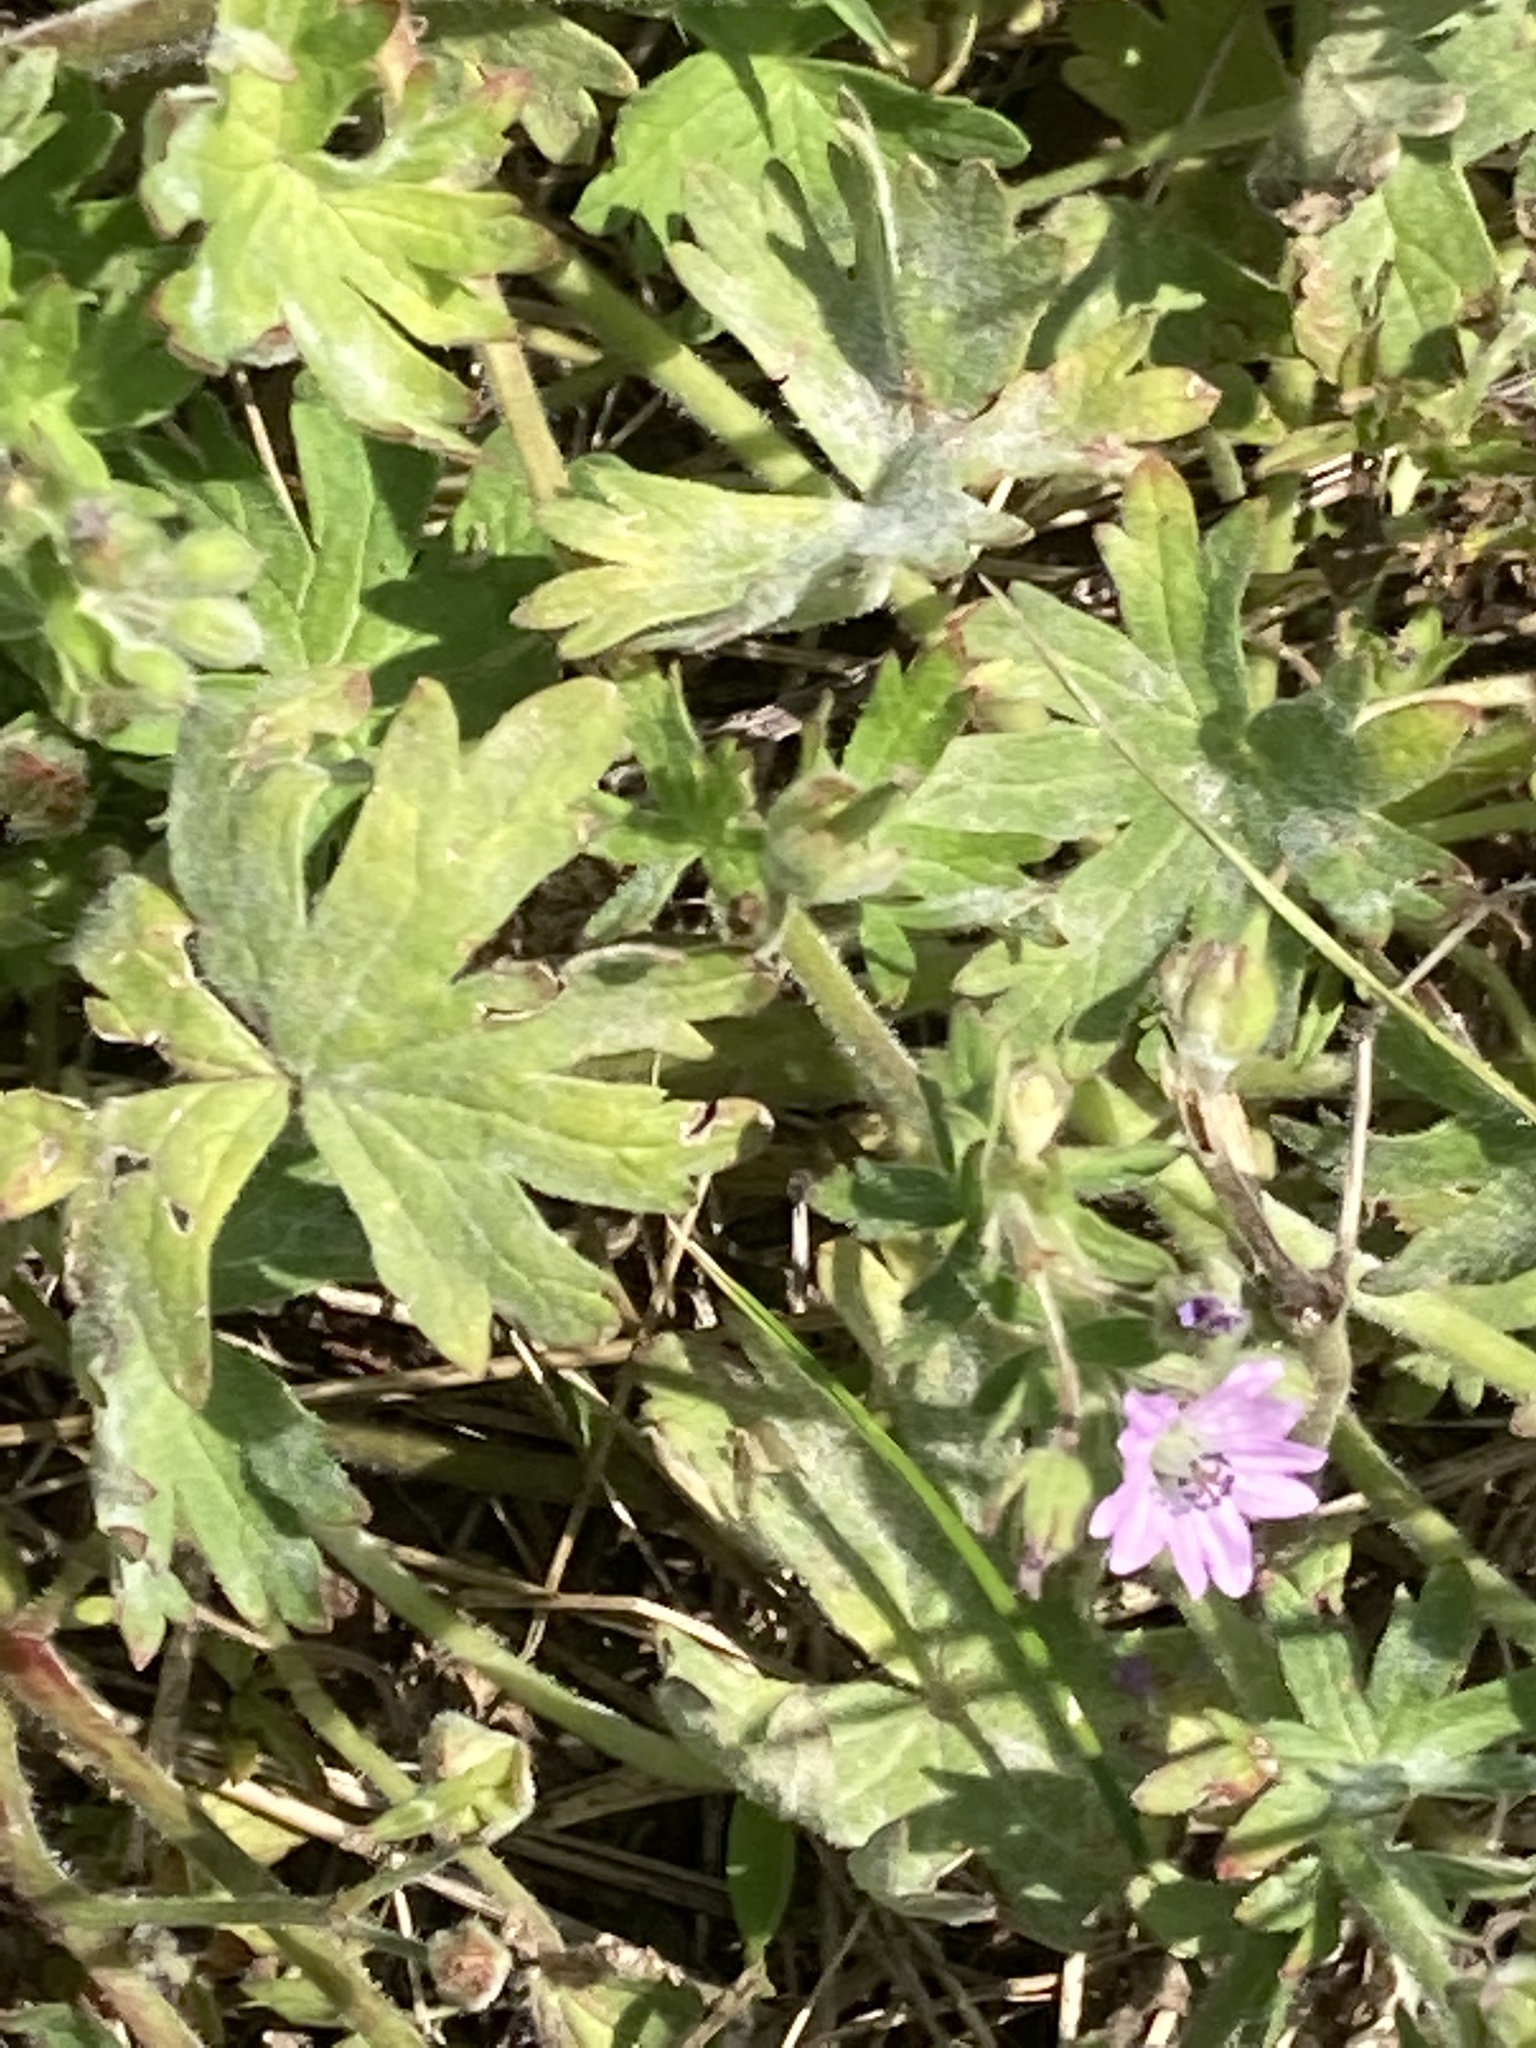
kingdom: Plantae
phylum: Tracheophyta
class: Magnoliopsida
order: Geraniales
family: Geraniaceae
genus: Geranium
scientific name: Geranium molle
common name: Dove's-foot crane's-bill
